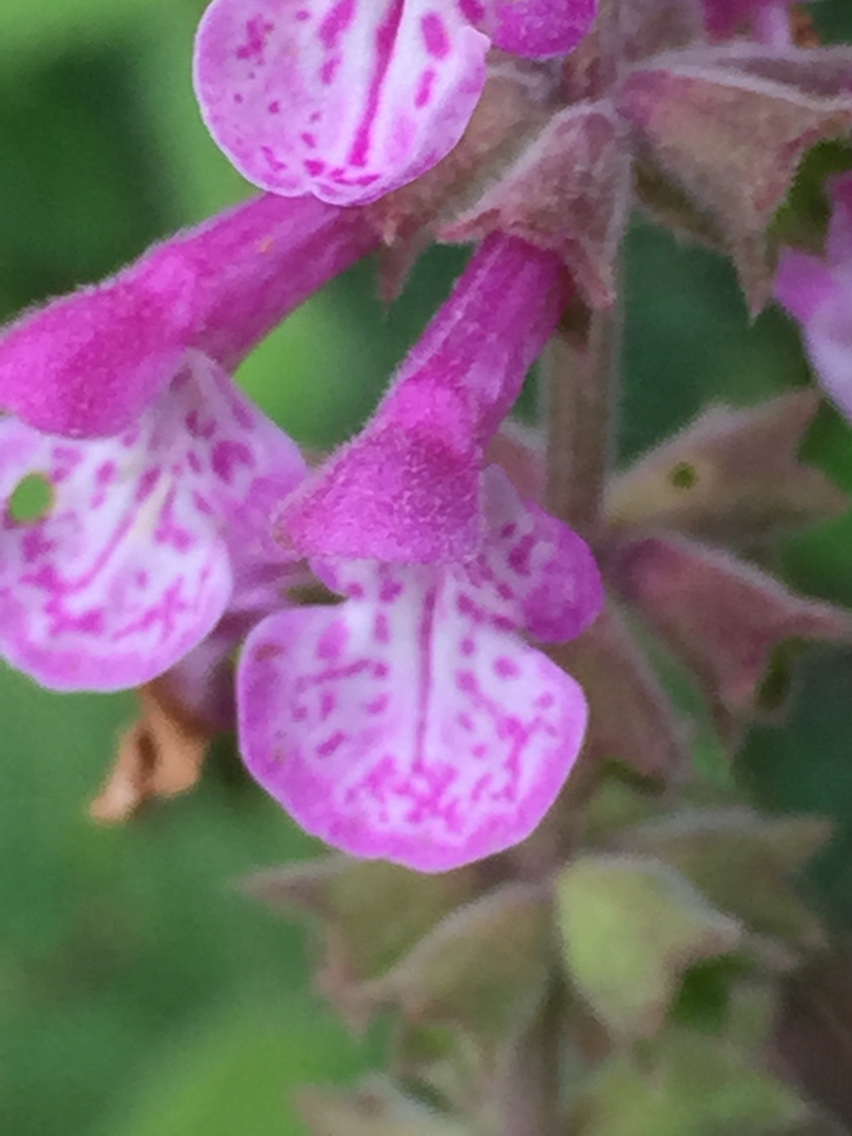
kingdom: Plantae
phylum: Tracheophyta
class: Magnoliopsida
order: Lamiales
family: Lamiaceae
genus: Stachys
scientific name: Stachys bullata
